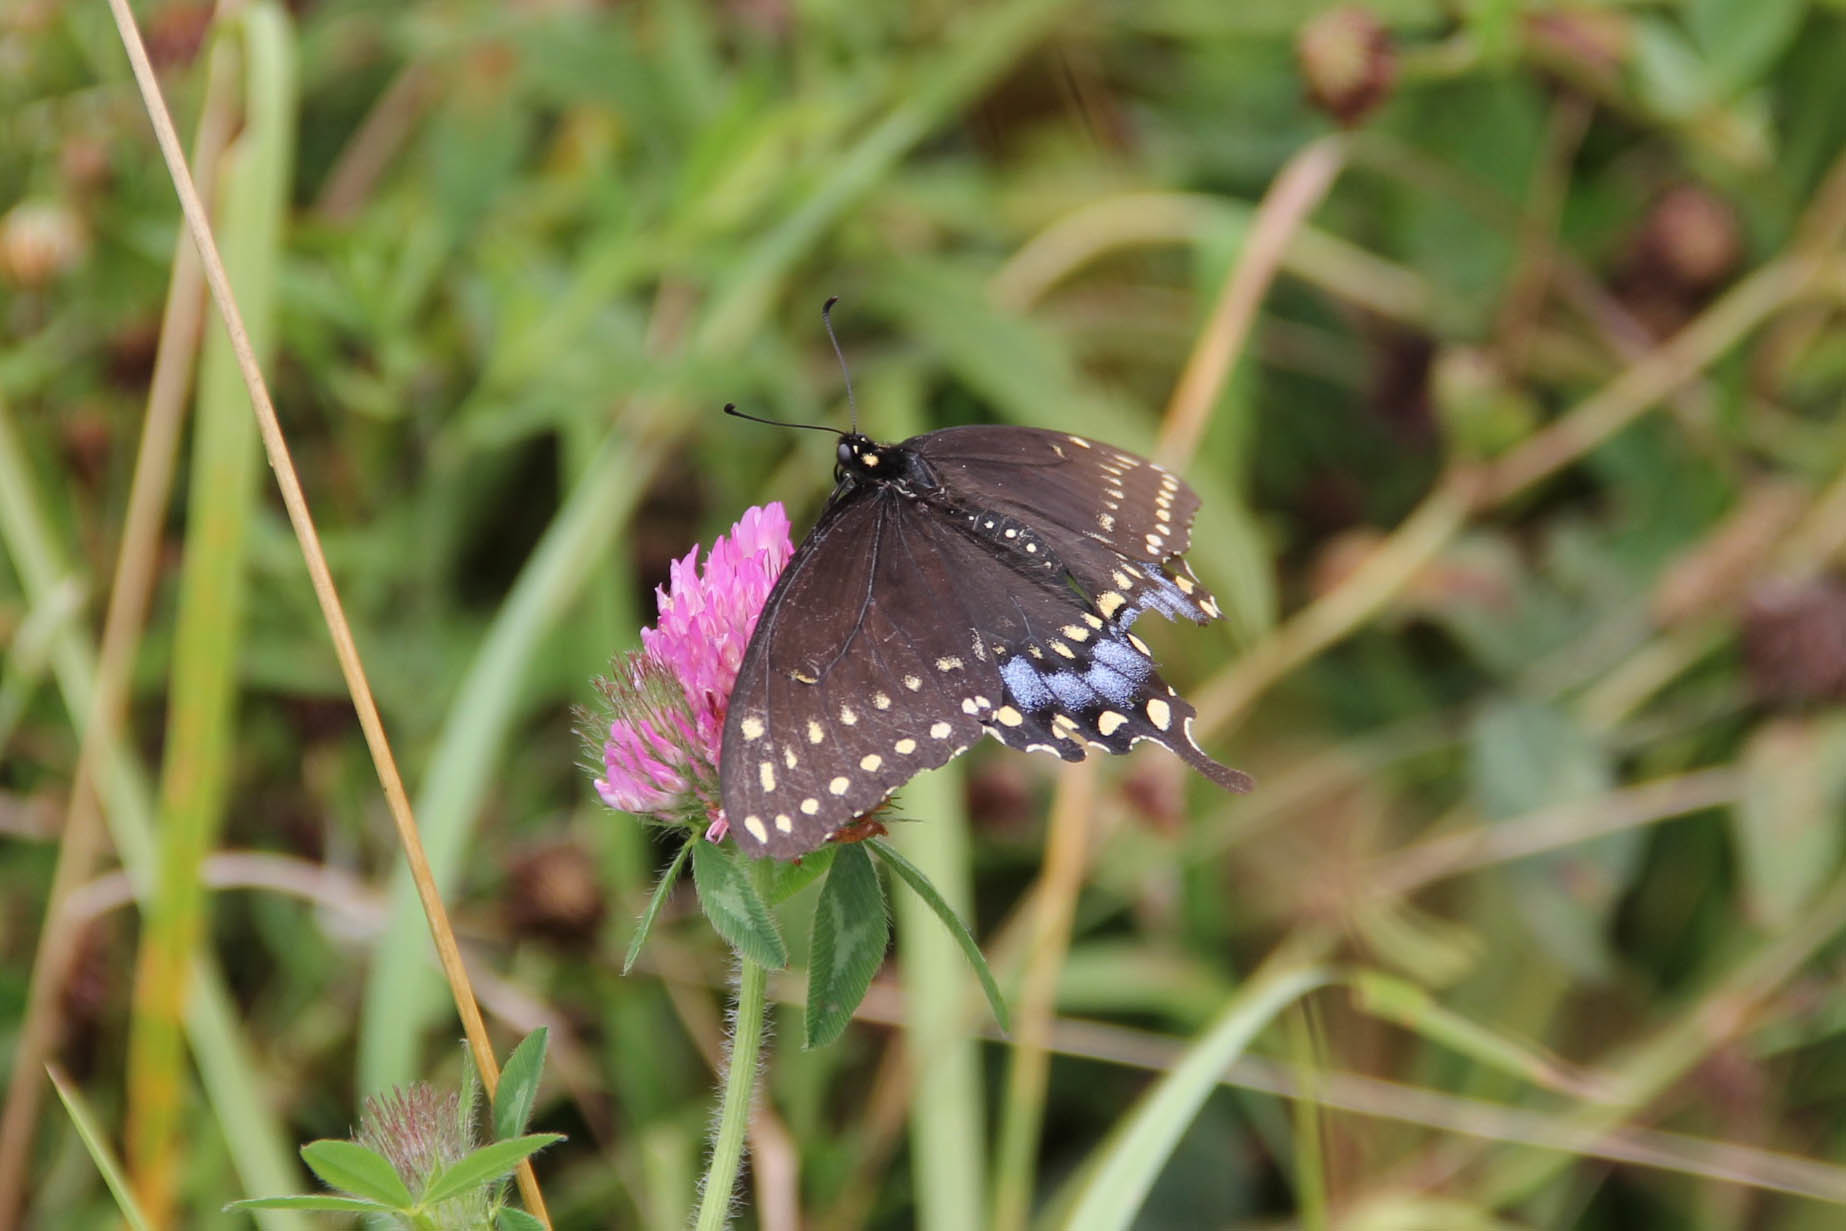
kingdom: Animalia
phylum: Arthropoda
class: Insecta
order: Lepidoptera
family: Papilionidae
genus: Papilio
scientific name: Papilio polyxenes
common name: Black swallowtail
